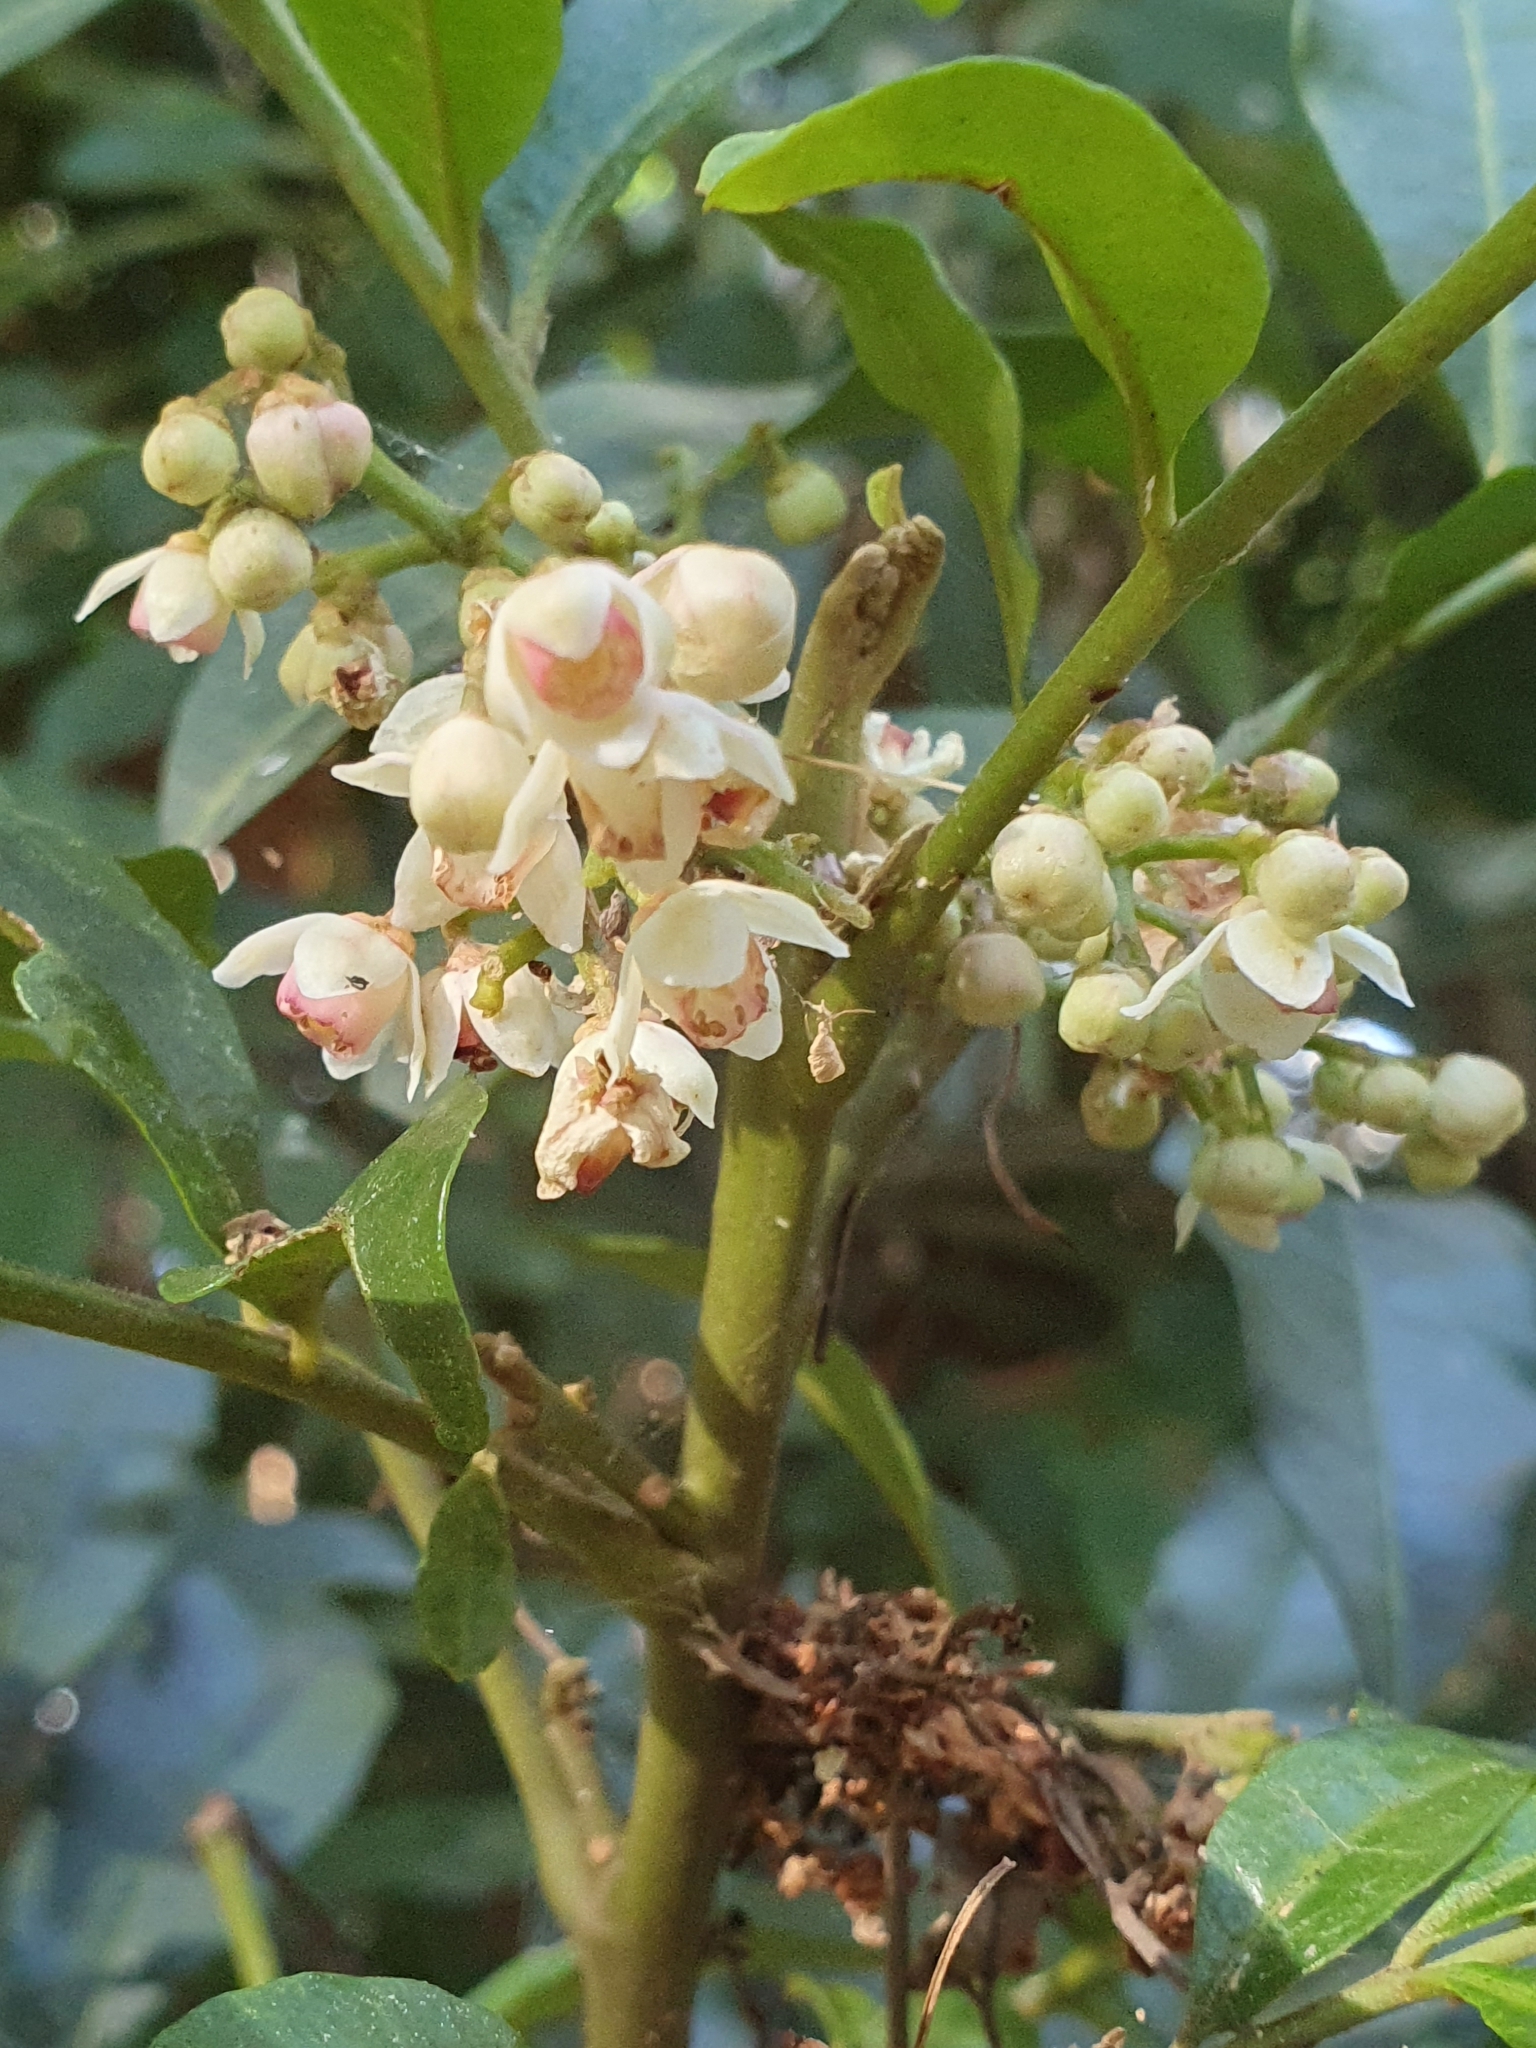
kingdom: Plantae
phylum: Tracheophyta
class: Magnoliopsida
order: Sapindales
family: Meliaceae
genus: Synoum
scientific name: Synoum glandulosum
